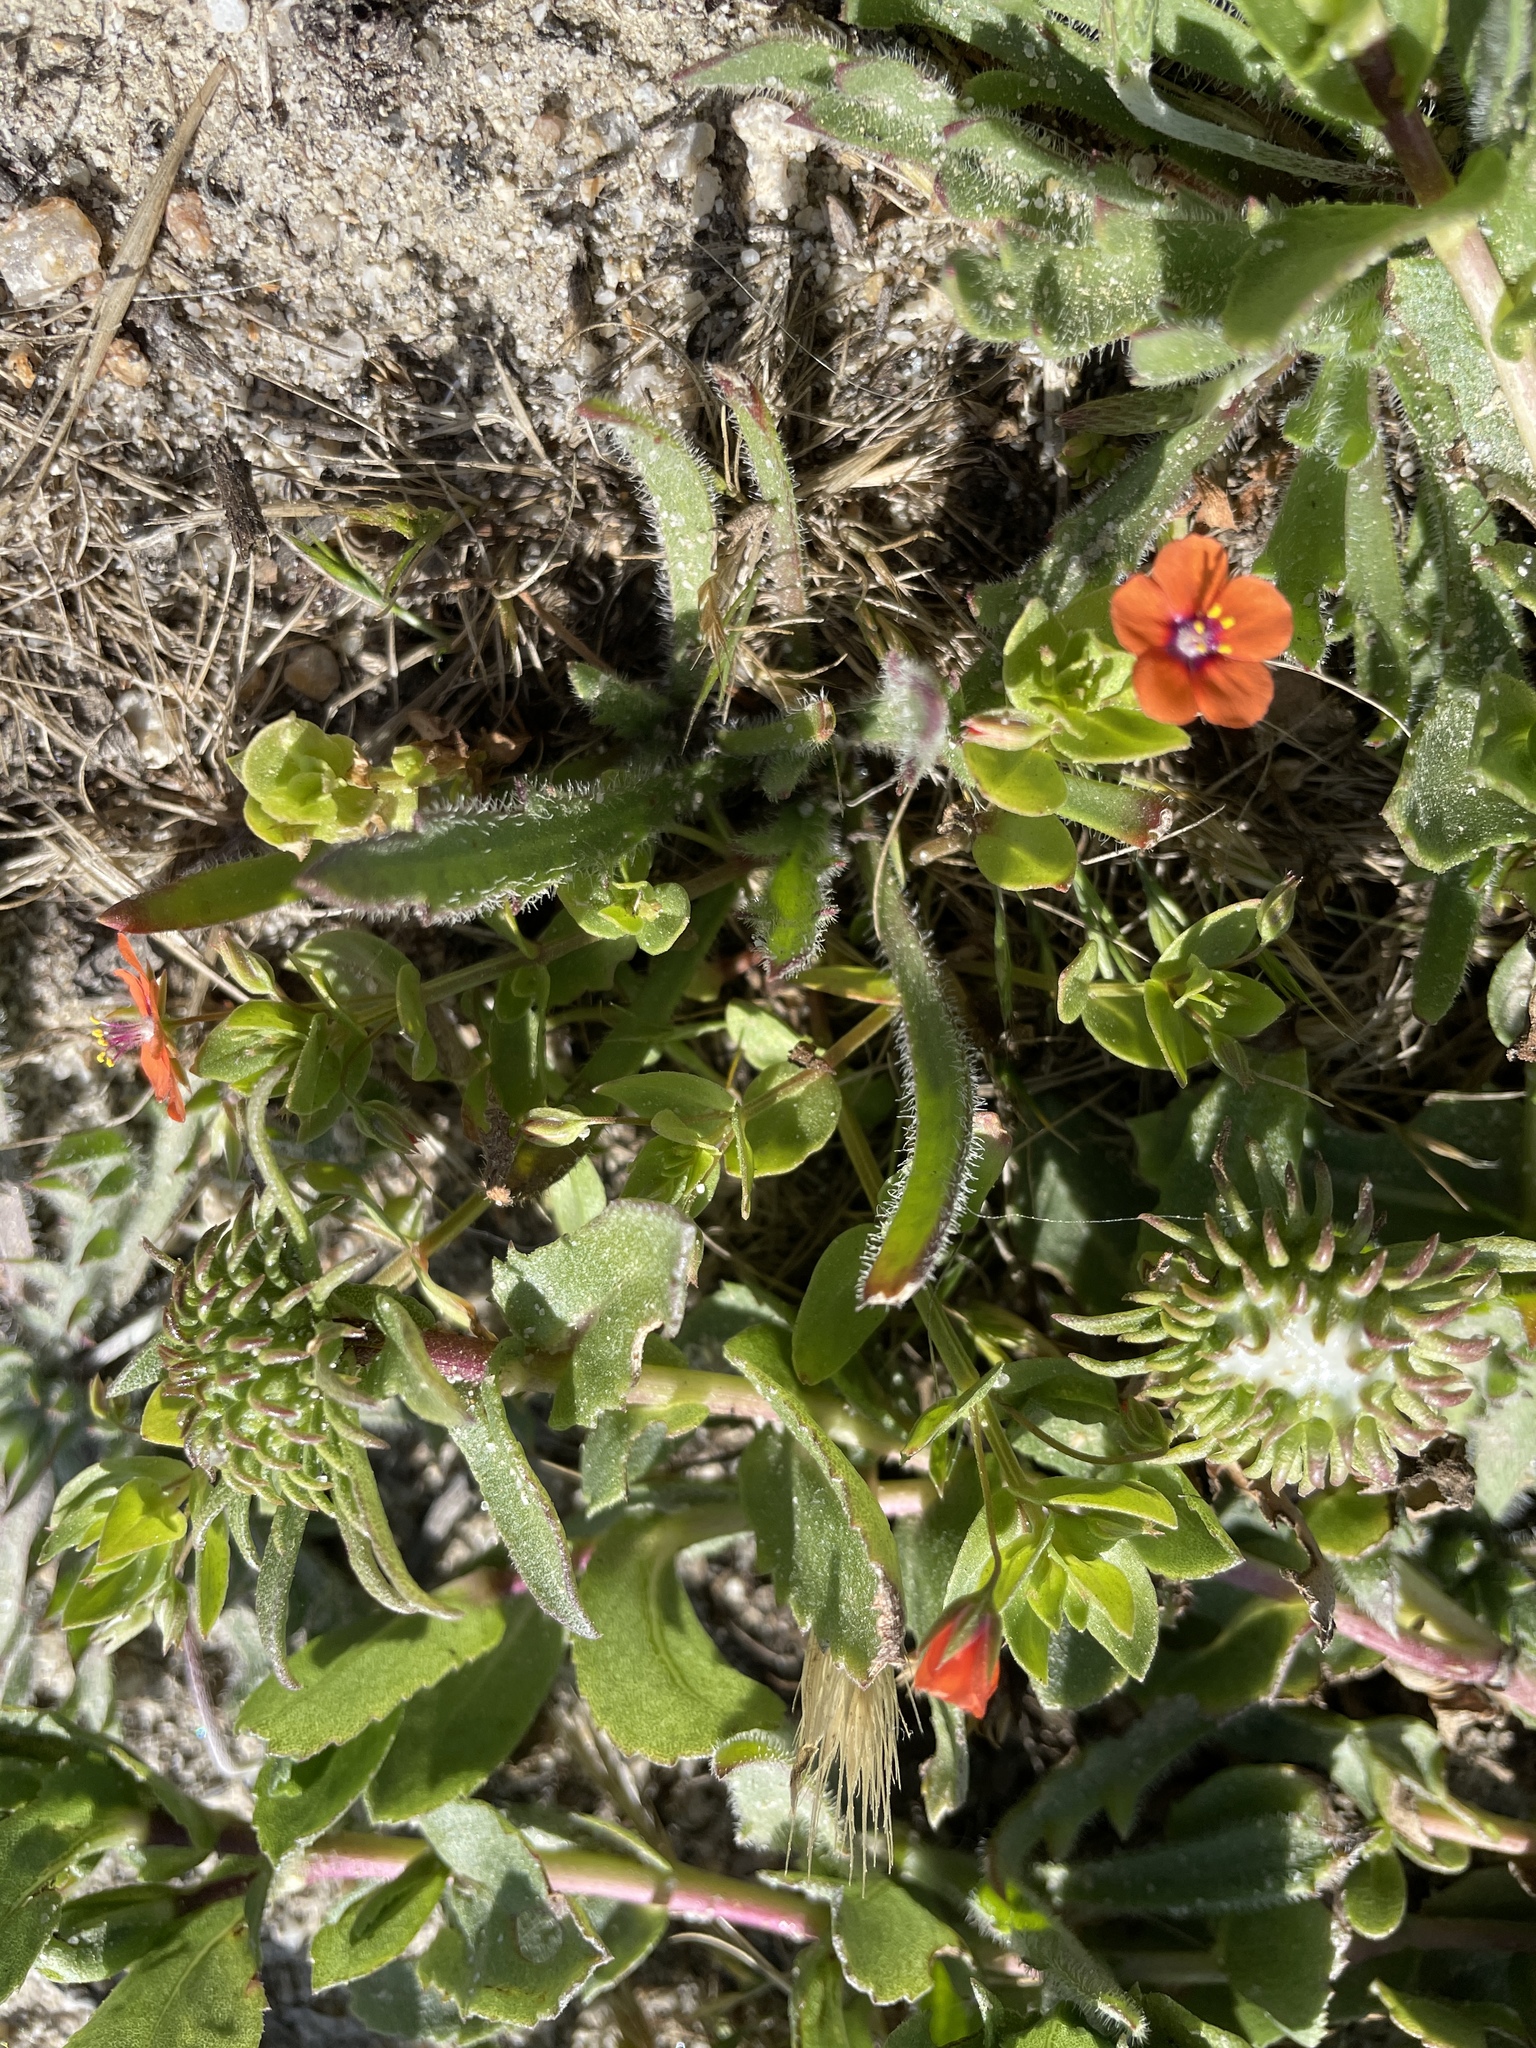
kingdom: Plantae
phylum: Tracheophyta
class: Magnoliopsida
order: Ericales
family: Primulaceae
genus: Lysimachia
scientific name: Lysimachia arvensis
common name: Scarlet pimpernel
